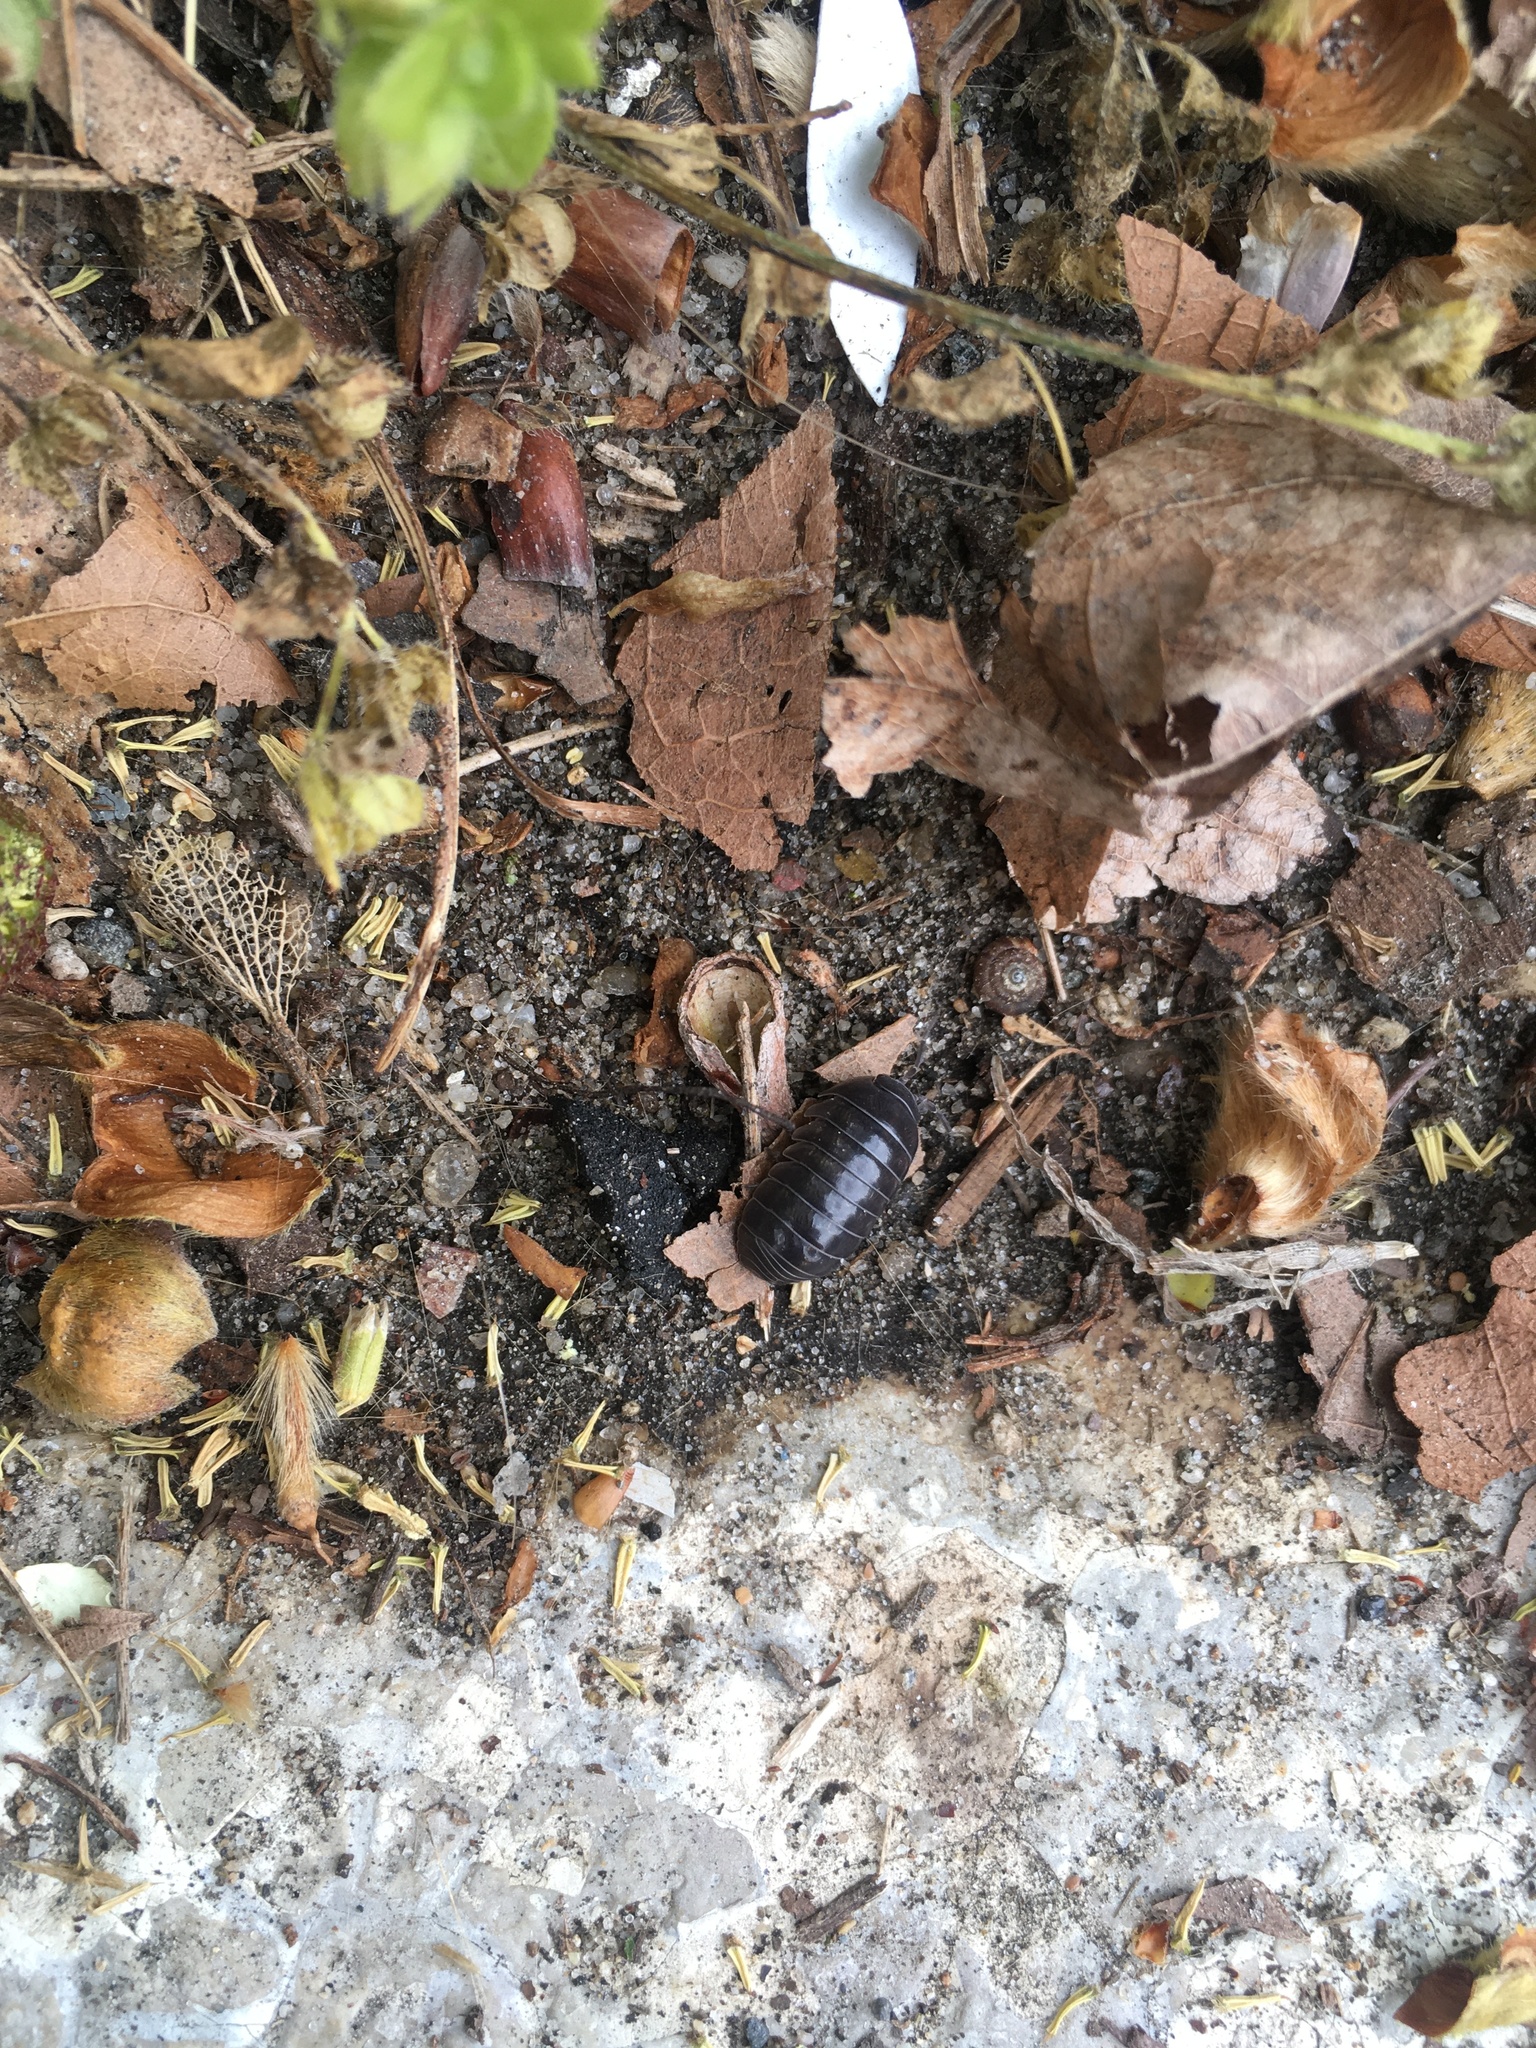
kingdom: Animalia
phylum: Arthropoda
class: Malacostraca
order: Isopoda
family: Armadillidiidae
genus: Armadillidium
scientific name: Armadillidium vulgare
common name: Common pill woodlouse
